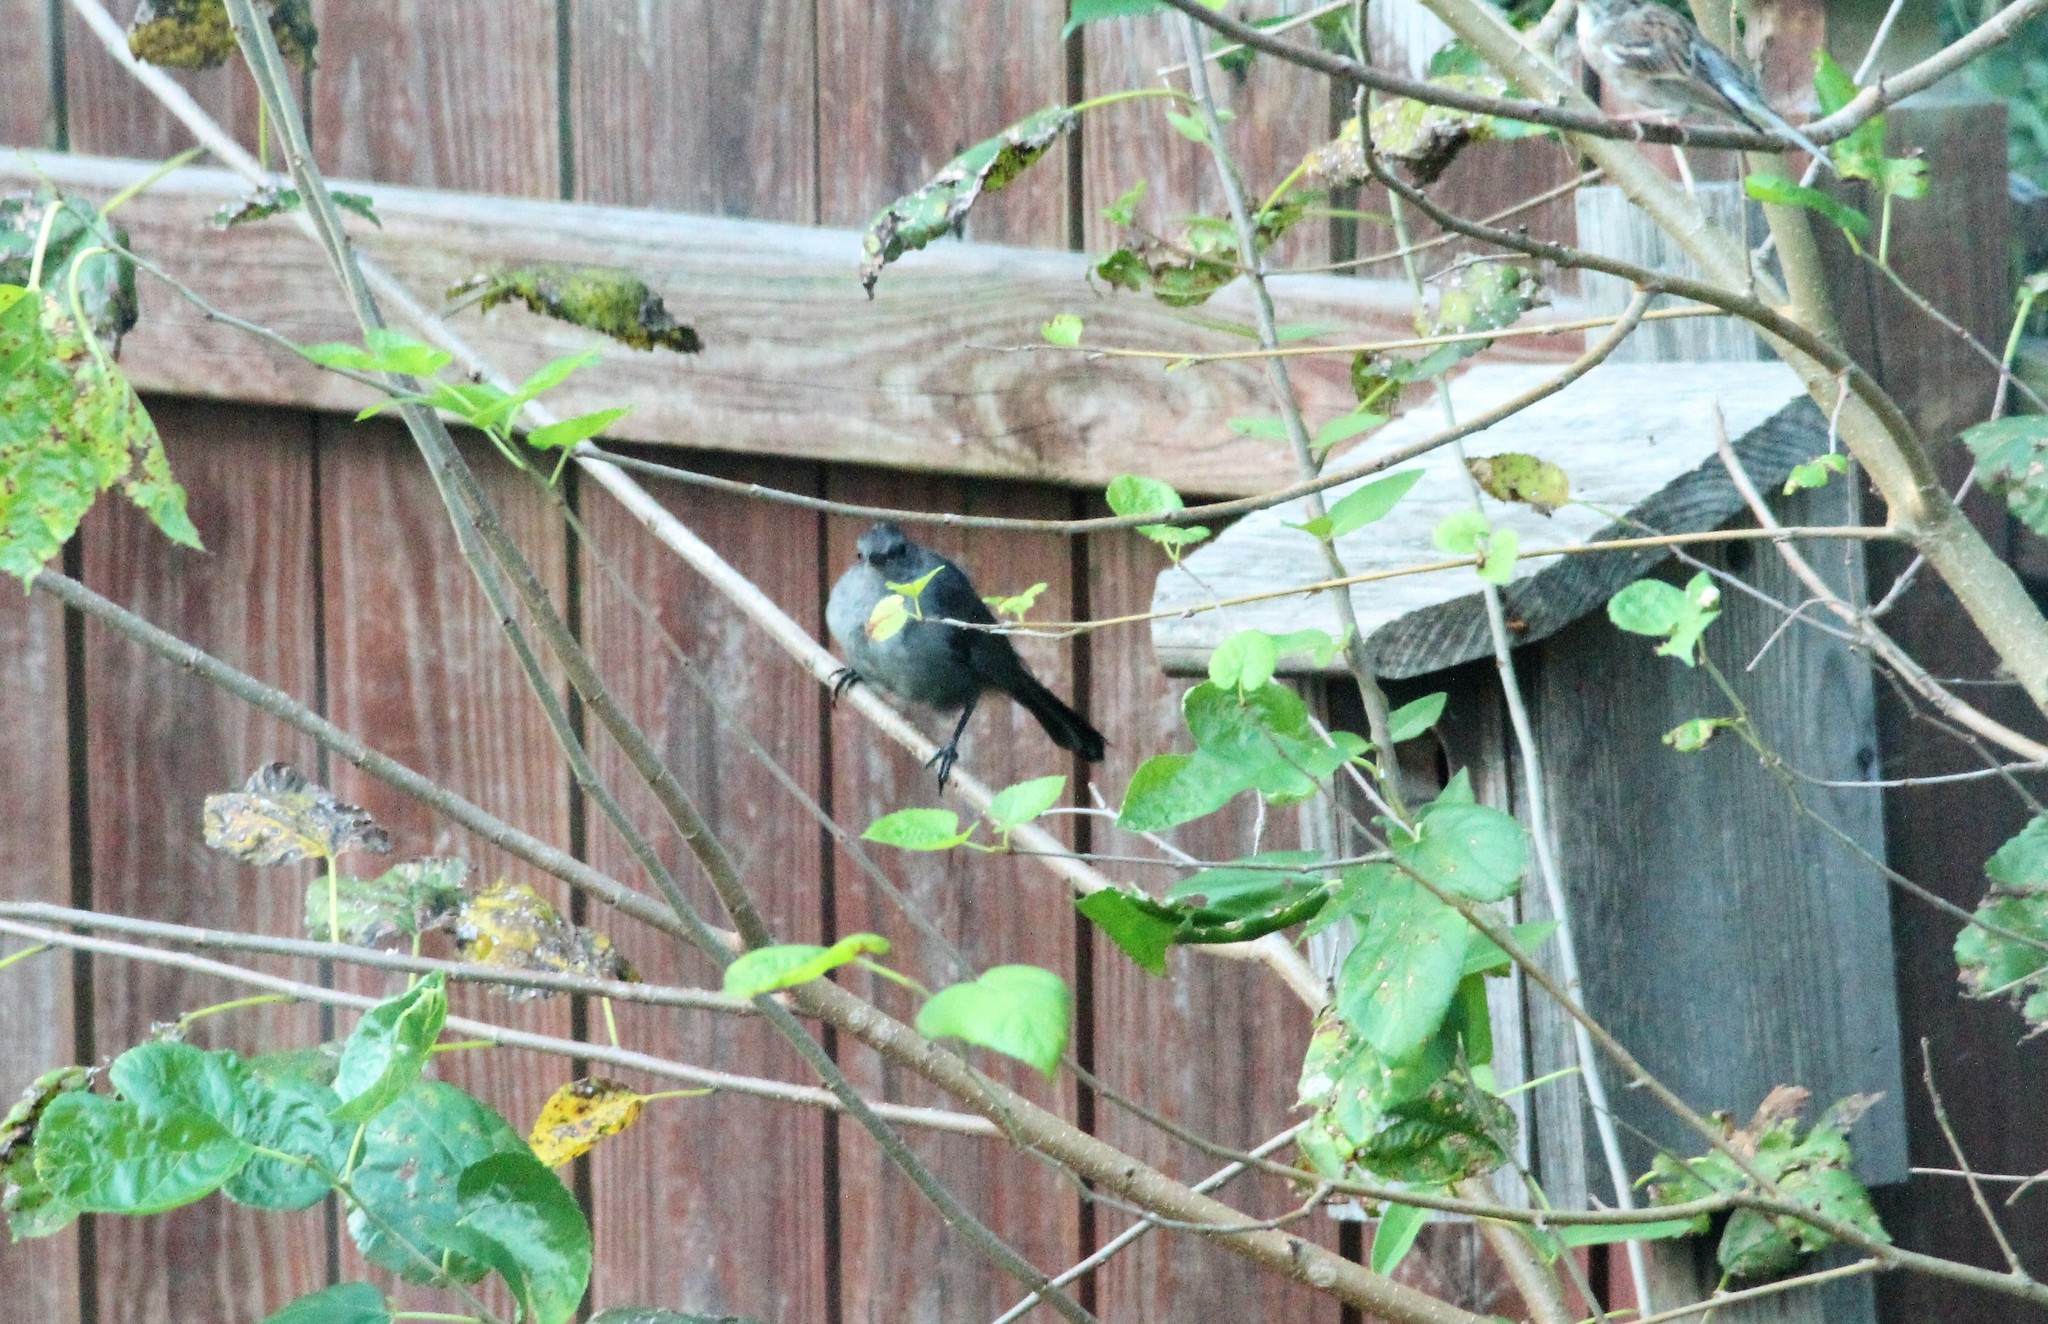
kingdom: Animalia
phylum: Chordata
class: Aves
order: Passeriformes
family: Mimidae
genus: Dumetella
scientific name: Dumetella carolinensis
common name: Gray catbird
